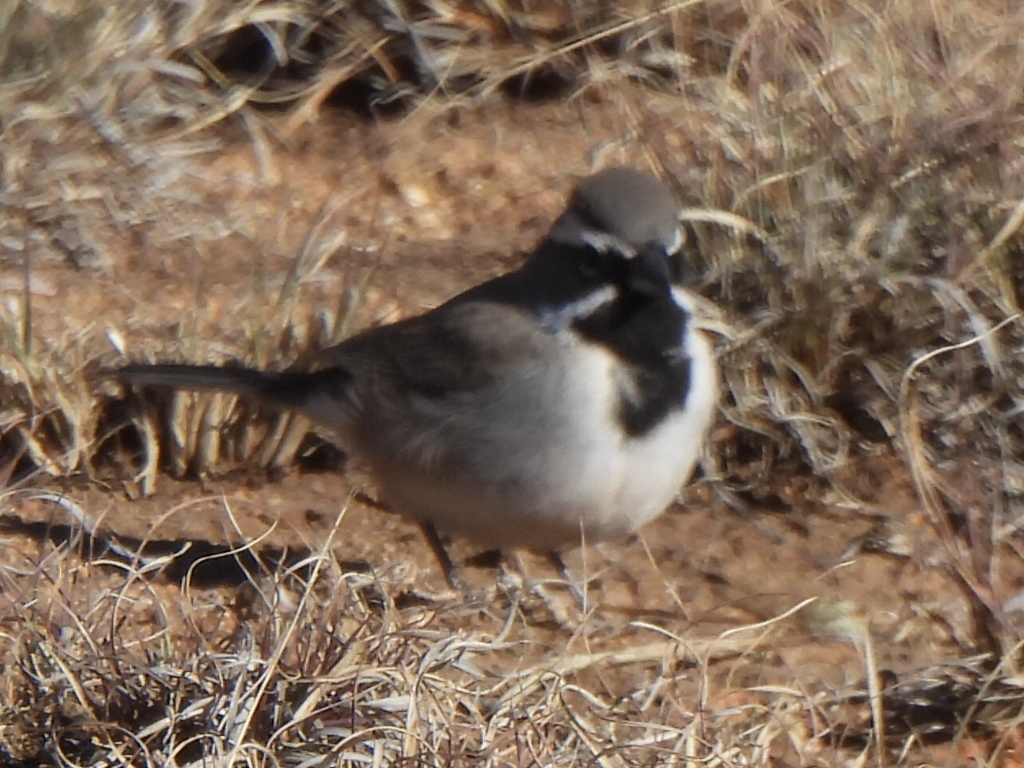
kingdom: Animalia
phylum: Chordata
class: Aves
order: Passeriformes
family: Passerellidae
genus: Amphispiza
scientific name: Amphispiza bilineata
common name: Black-throated sparrow
